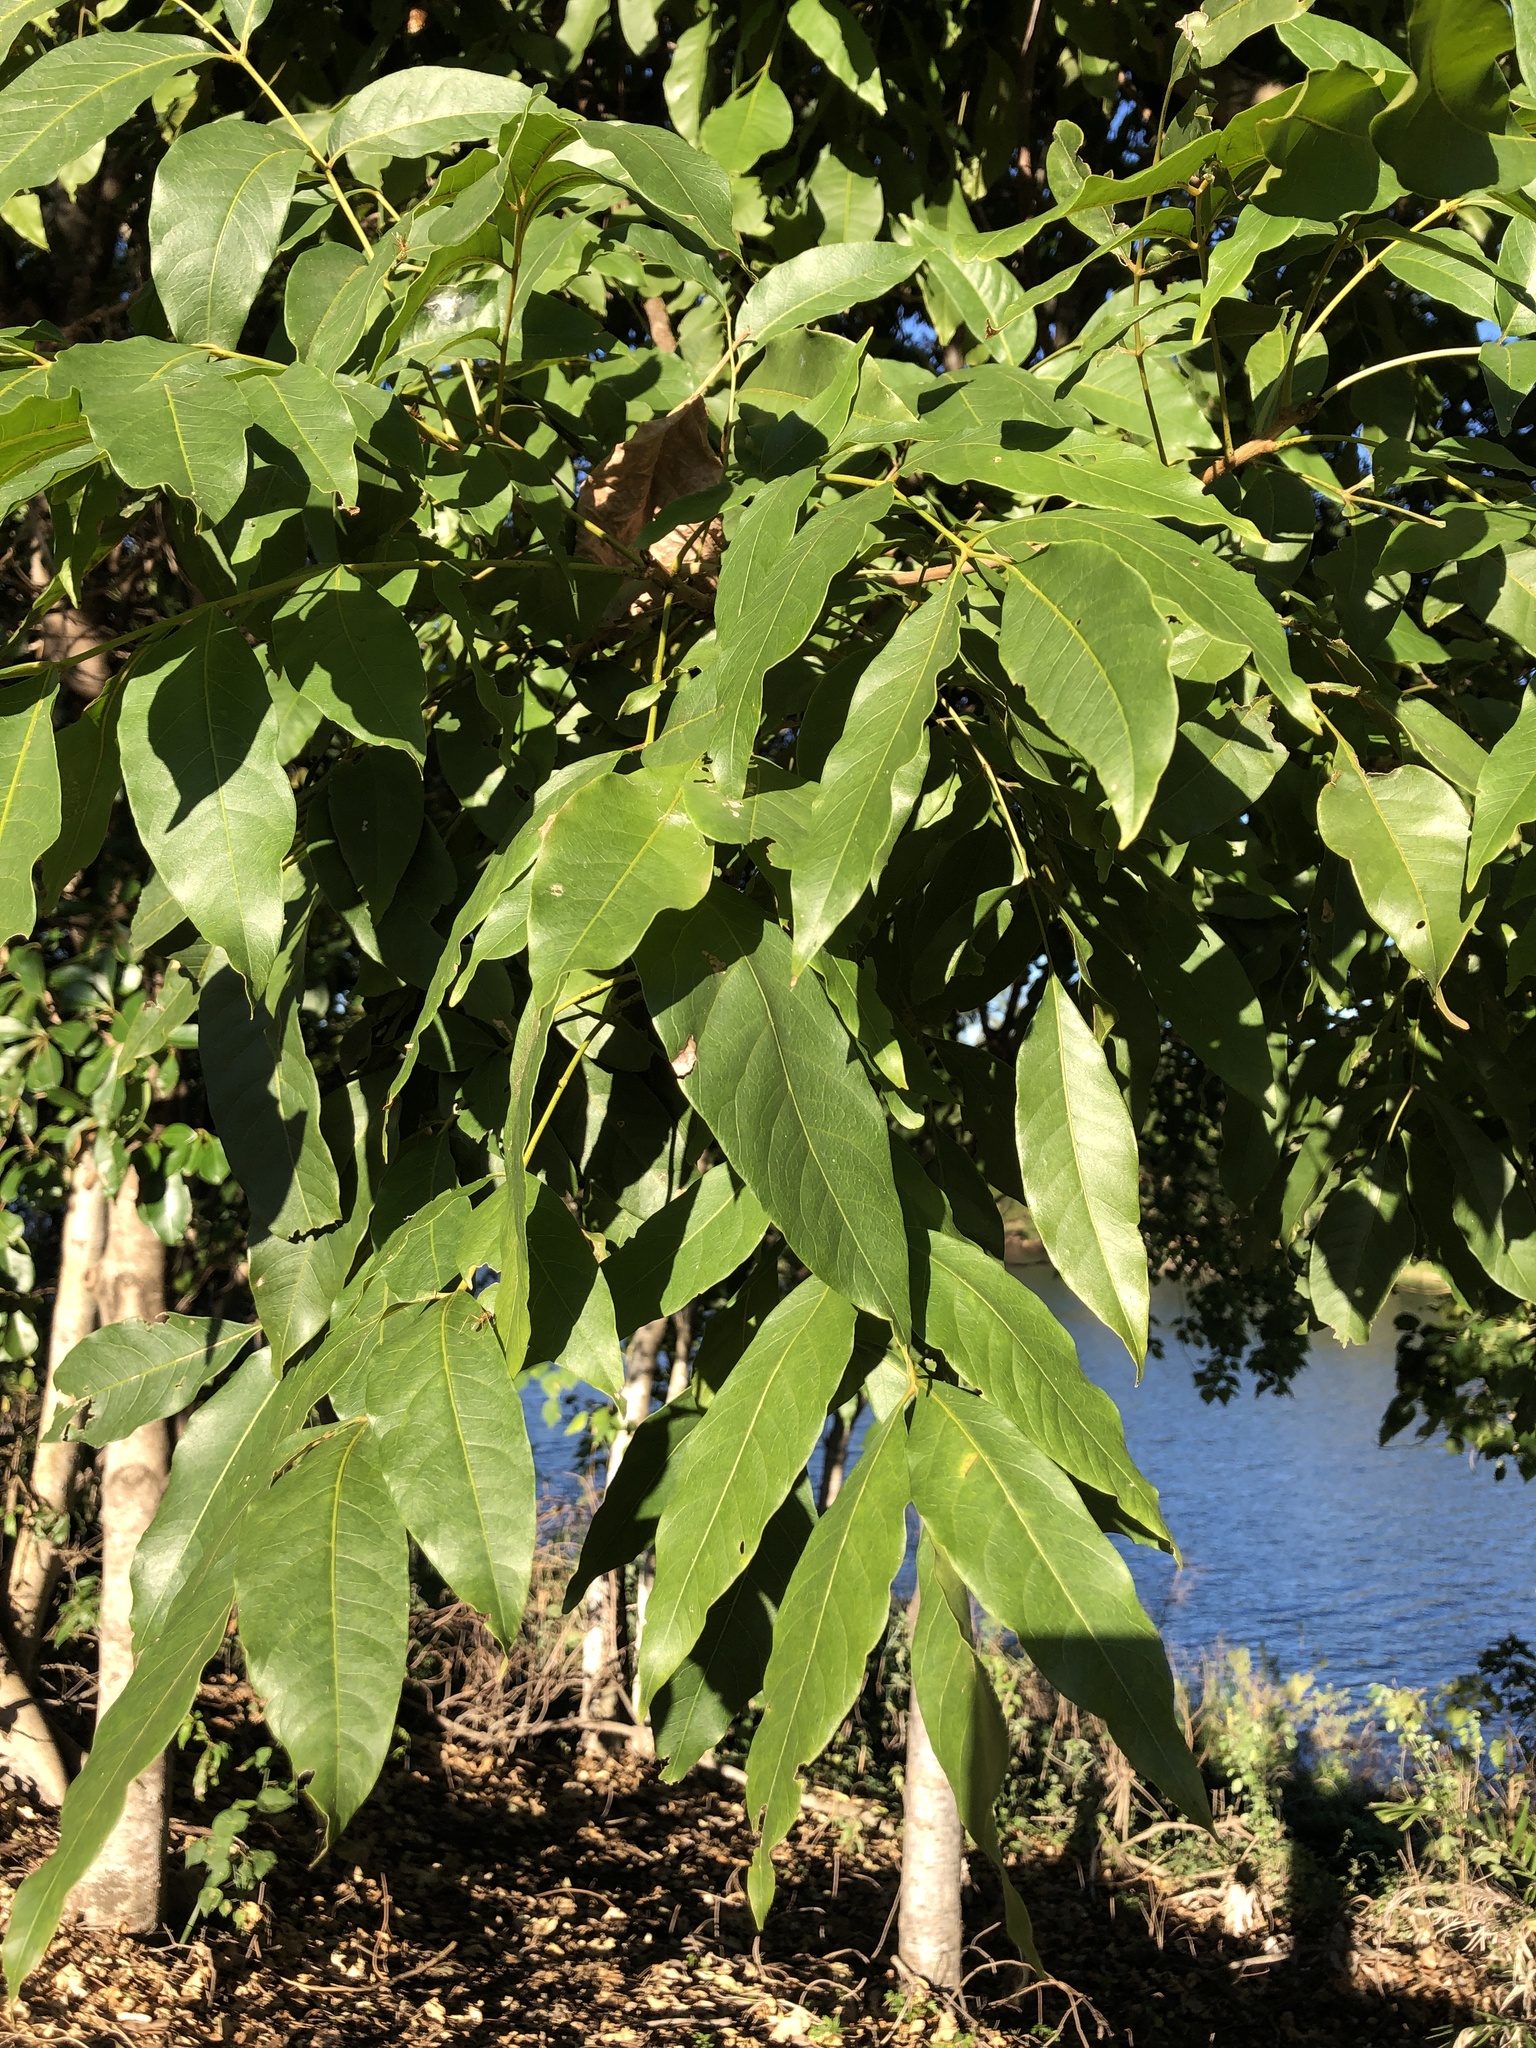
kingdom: Plantae
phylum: Tracheophyta
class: Magnoliopsida
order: Sapindales
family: Anacardiaceae
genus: Pleiogynium
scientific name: Pleiogynium timoriense
